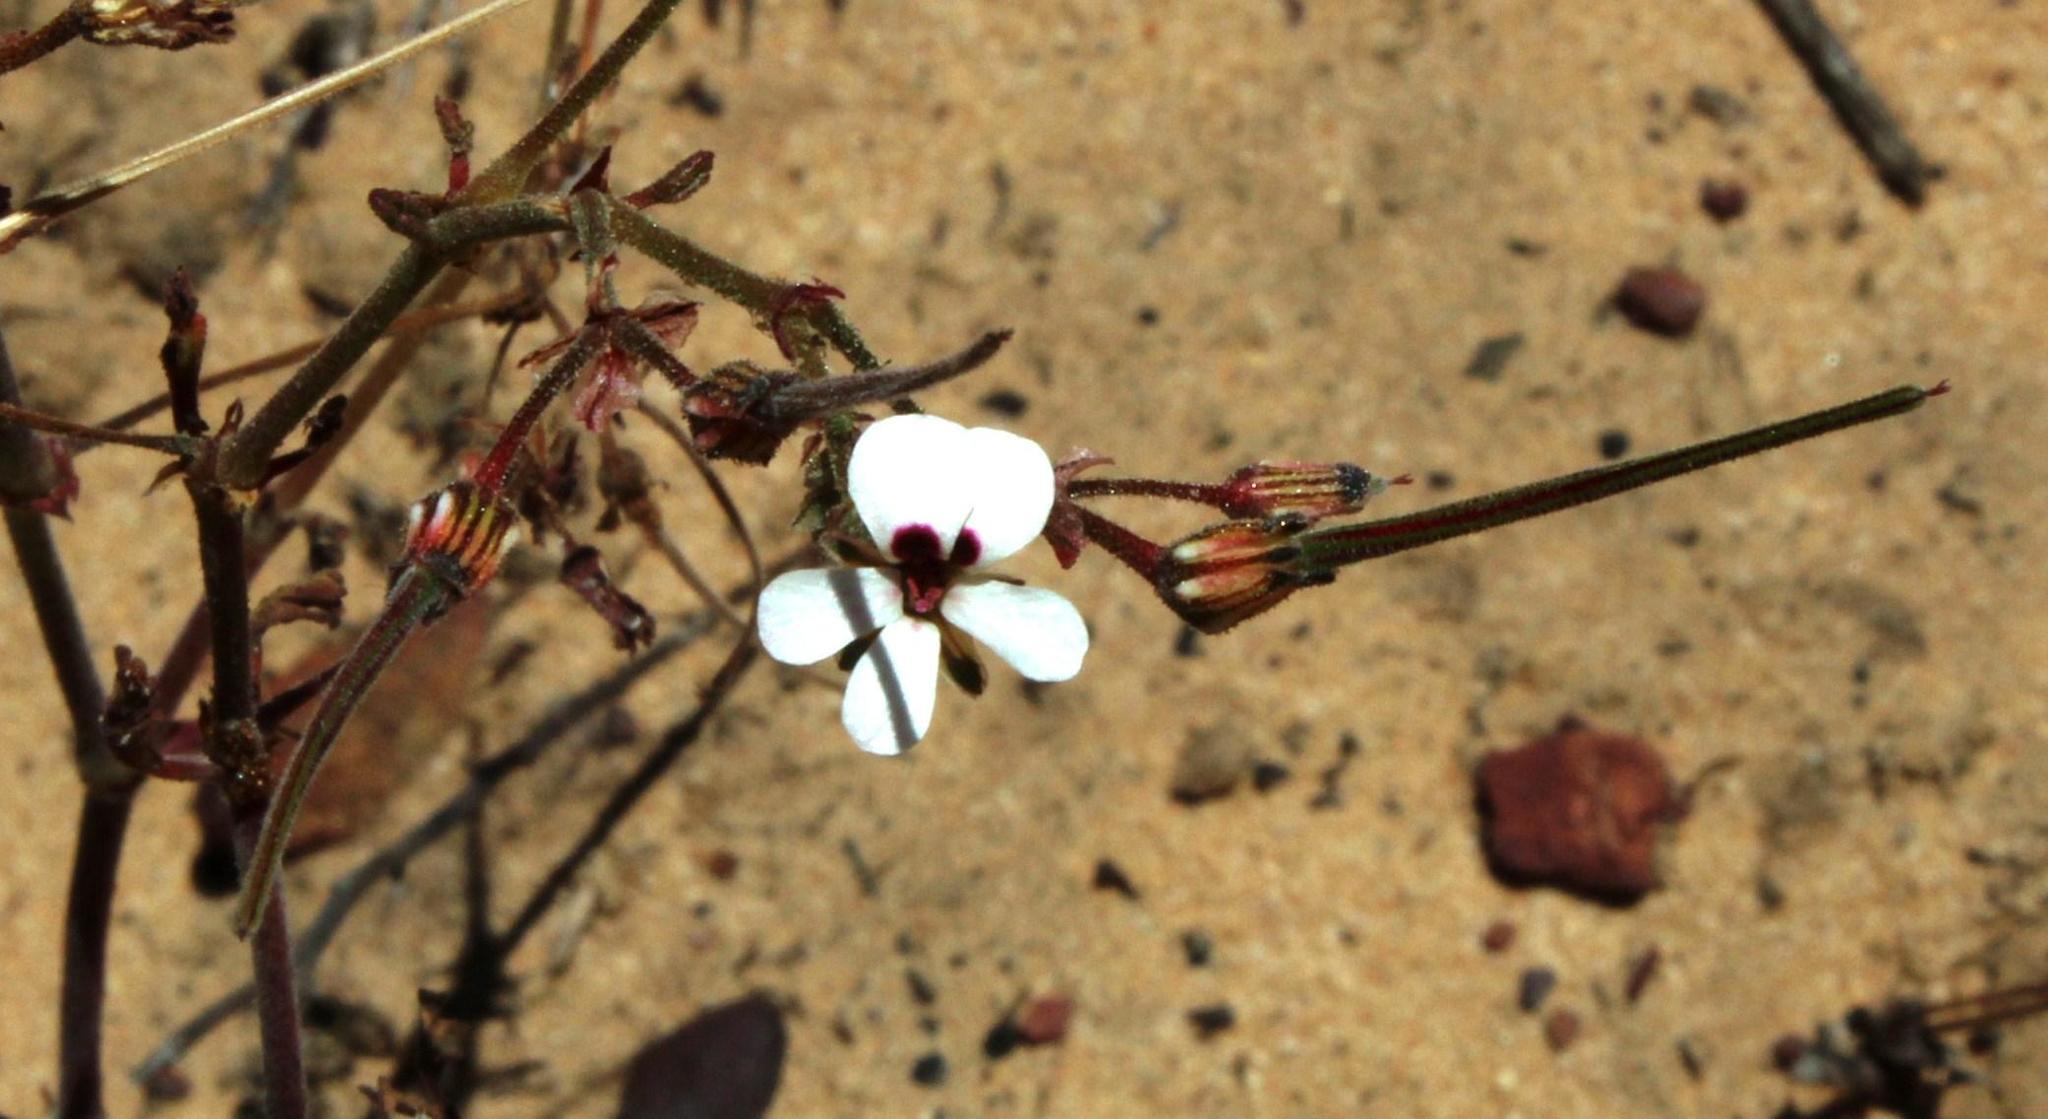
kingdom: Plantae
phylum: Tracheophyta
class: Magnoliopsida
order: Geraniales
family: Geraniaceae
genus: Pelargonium
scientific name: Pelargonium senecioides
